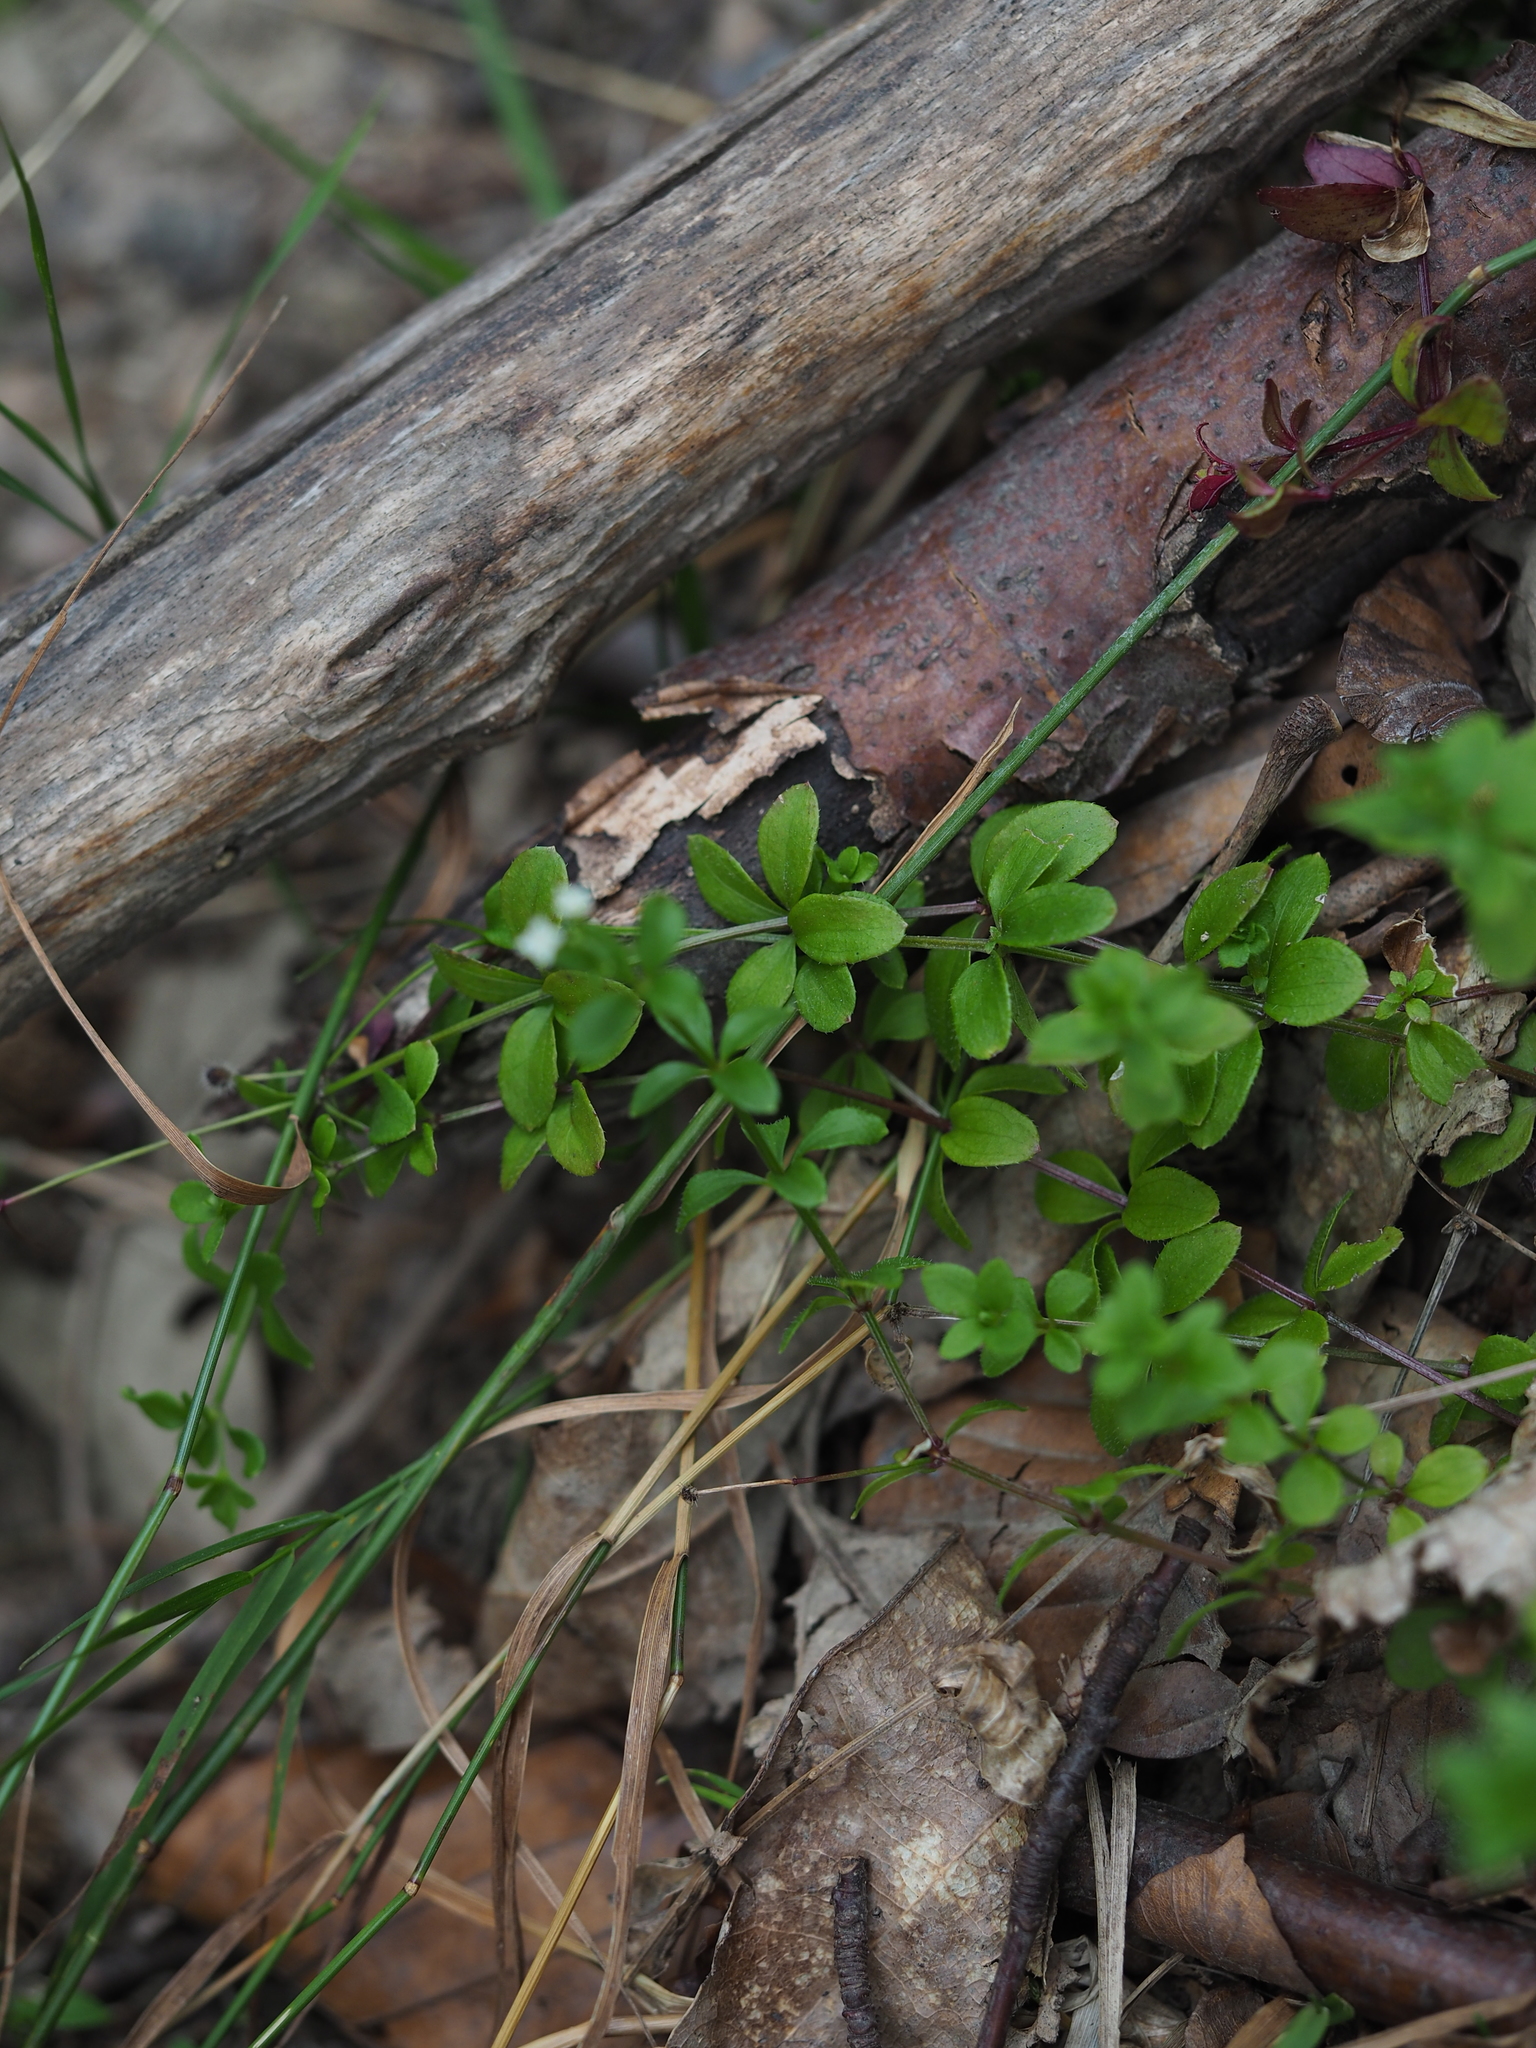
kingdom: Plantae
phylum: Tracheophyta
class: Magnoliopsida
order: Gentianales
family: Rubiaceae
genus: Galium
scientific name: Galium rotundifolium
